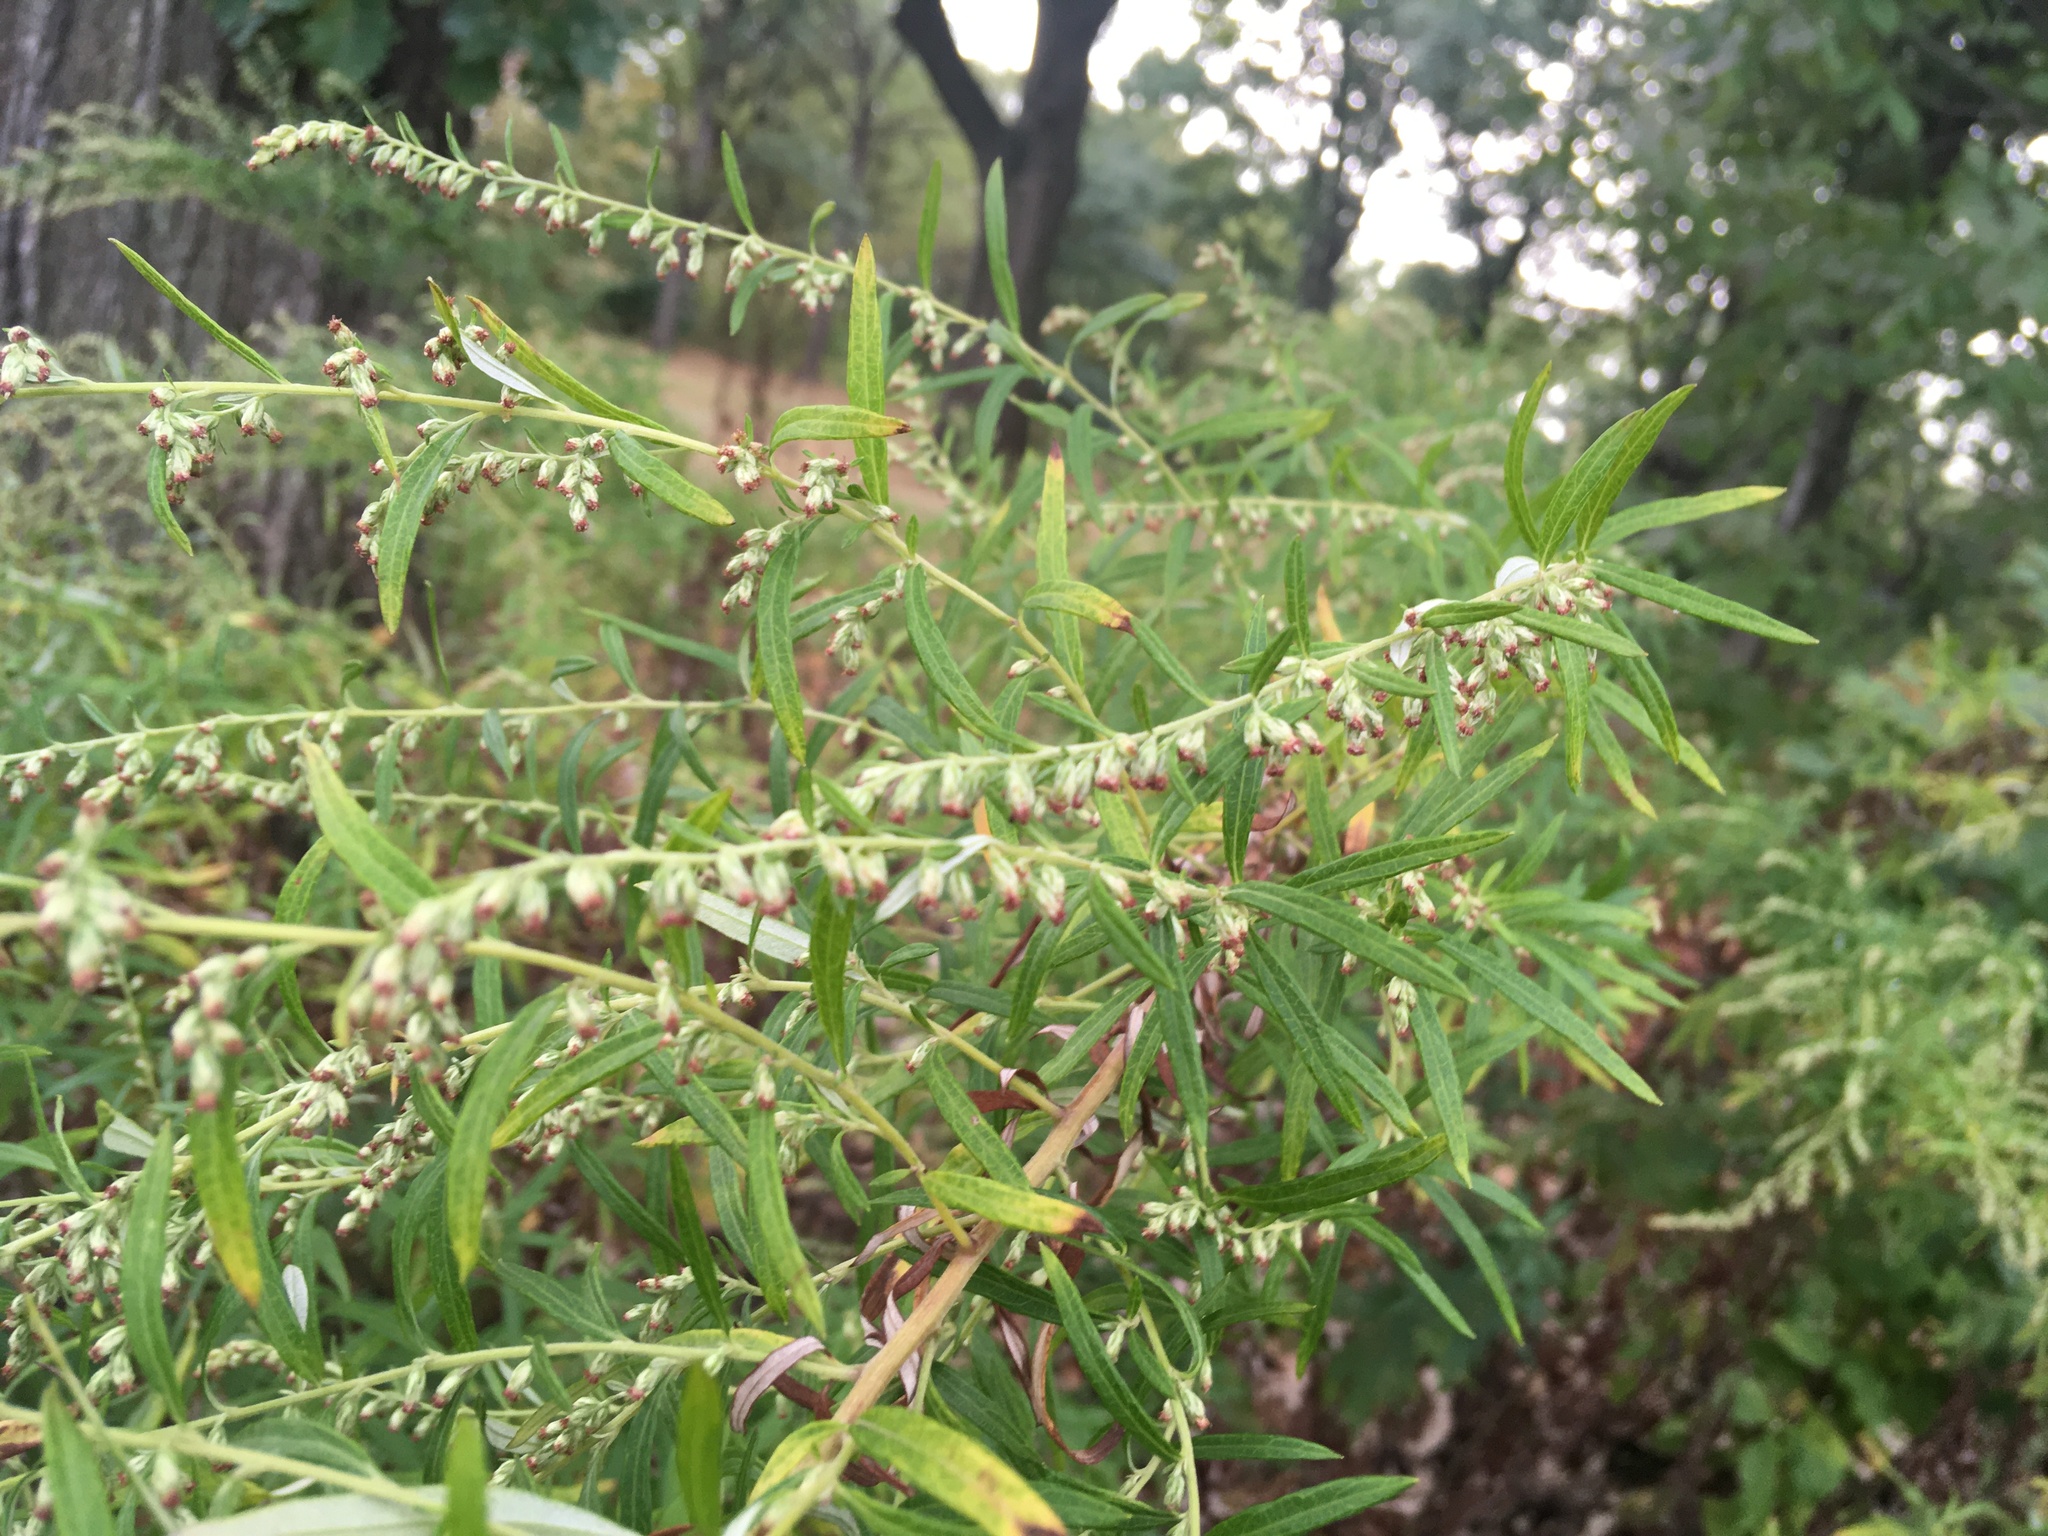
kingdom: Plantae
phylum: Tracheophyta
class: Magnoliopsida
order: Asterales
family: Asteraceae
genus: Artemisia
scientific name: Artemisia vulgaris
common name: Mugwort
